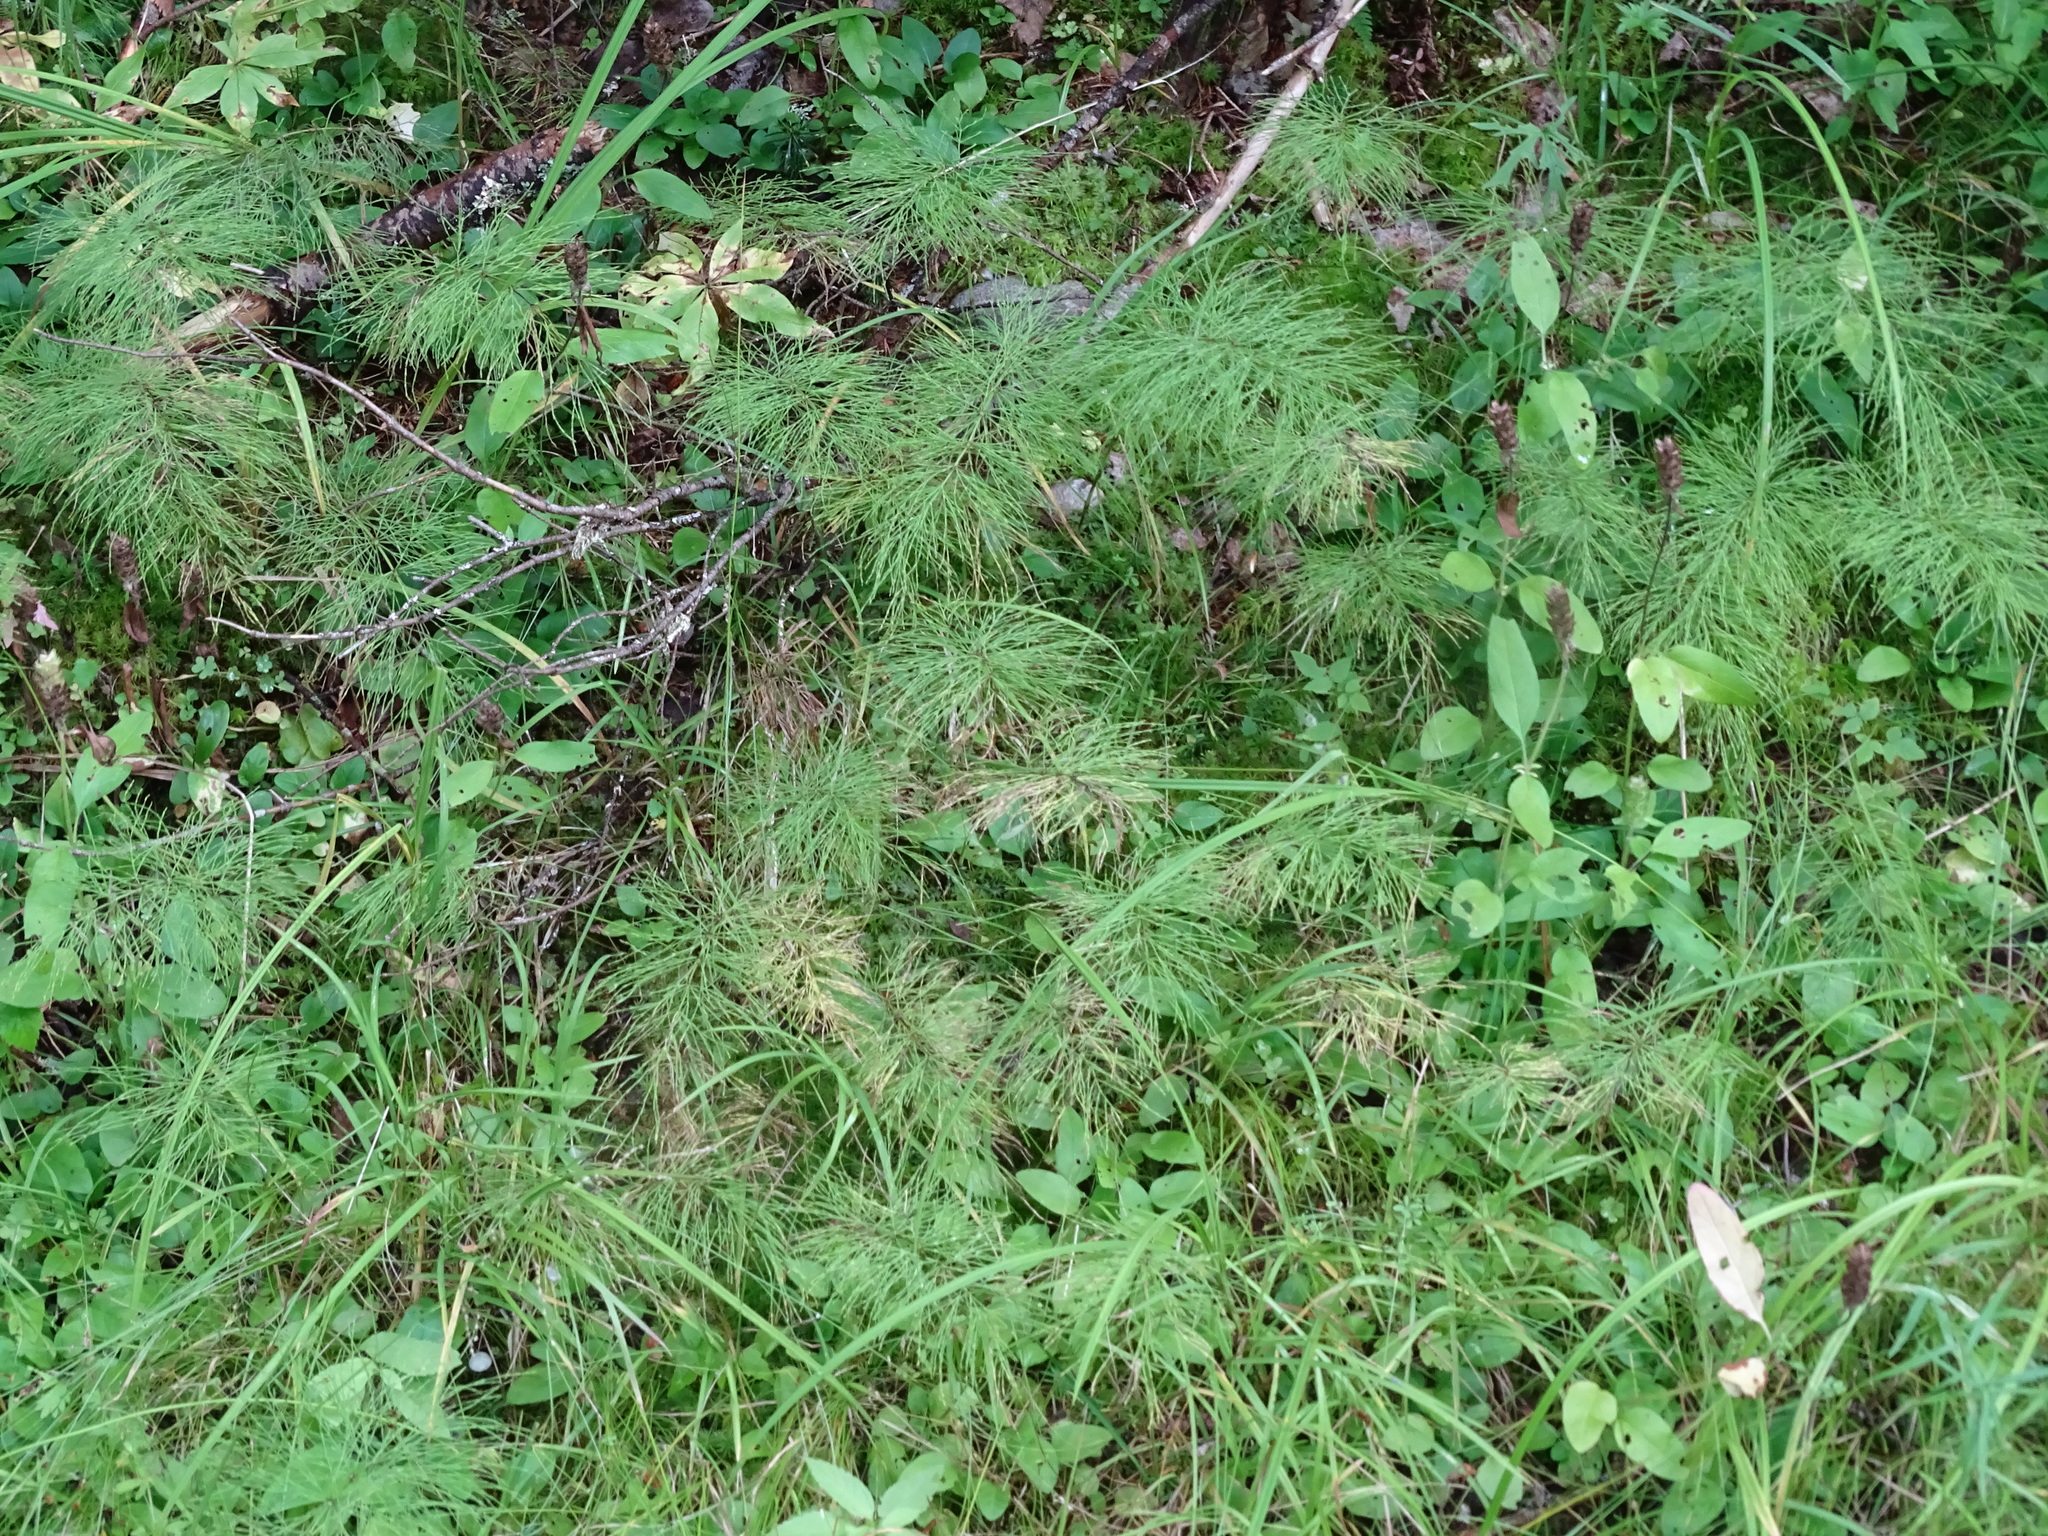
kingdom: Plantae
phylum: Tracheophyta
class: Polypodiopsida
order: Equisetales
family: Equisetaceae
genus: Equisetum
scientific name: Equisetum sylvaticum
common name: Wood horsetail
